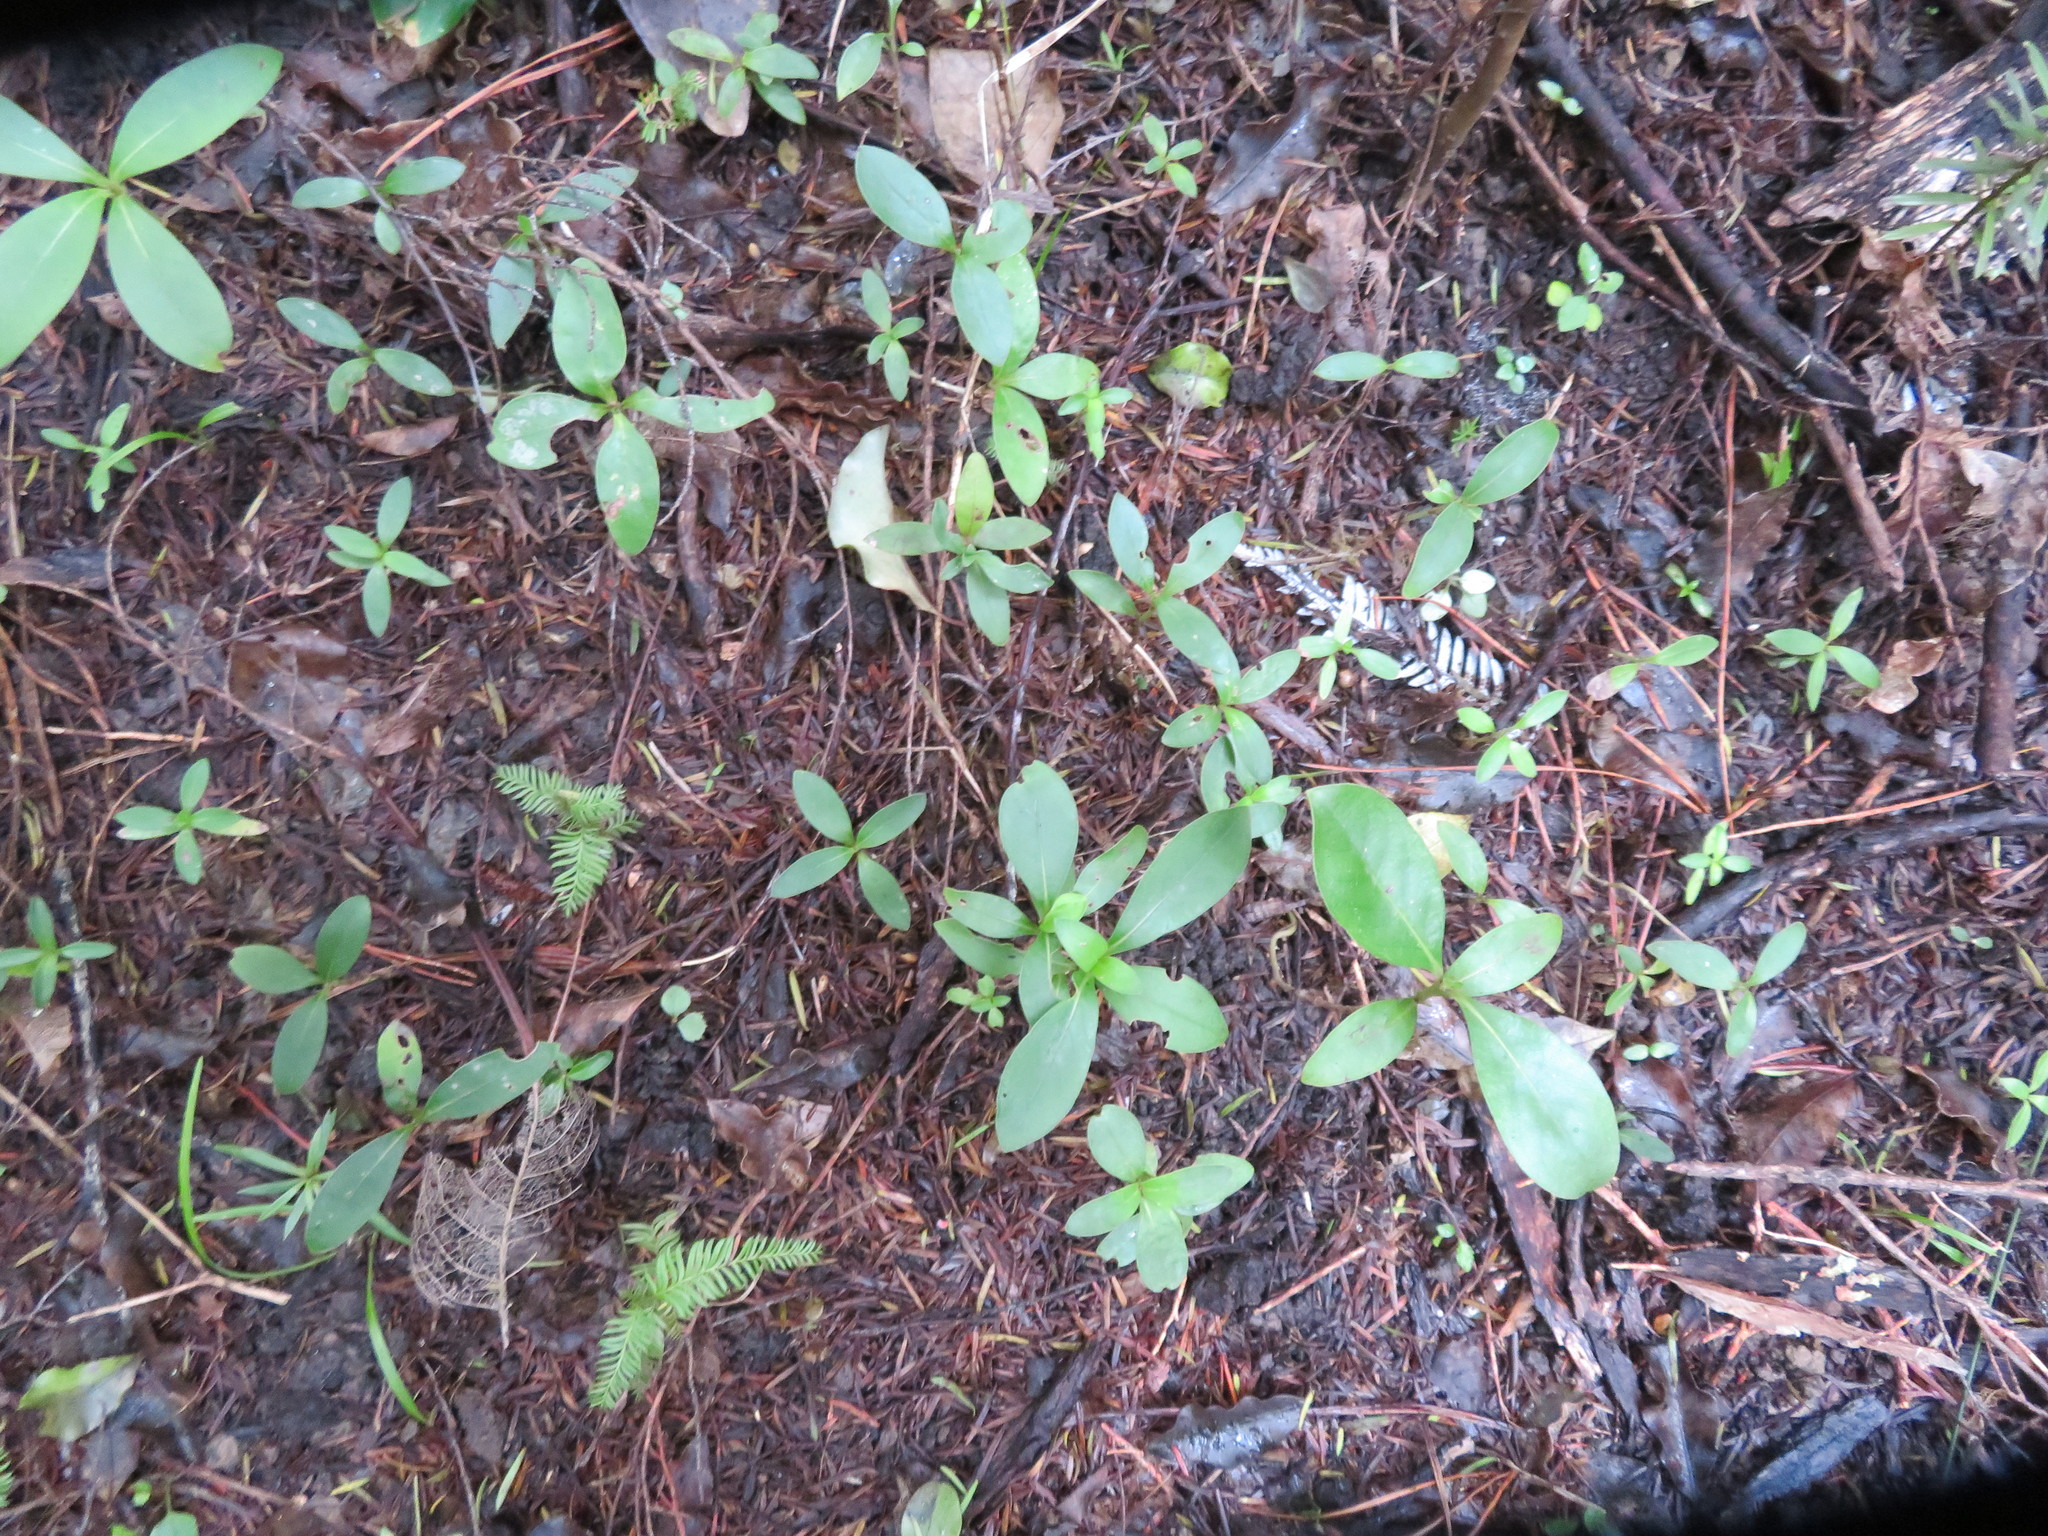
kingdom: Plantae
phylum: Tracheophyta
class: Pinopsida
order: Pinales
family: Podocarpaceae
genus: Dacrycarpus
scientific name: Dacrycarpus dacrydioides
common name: White pine
